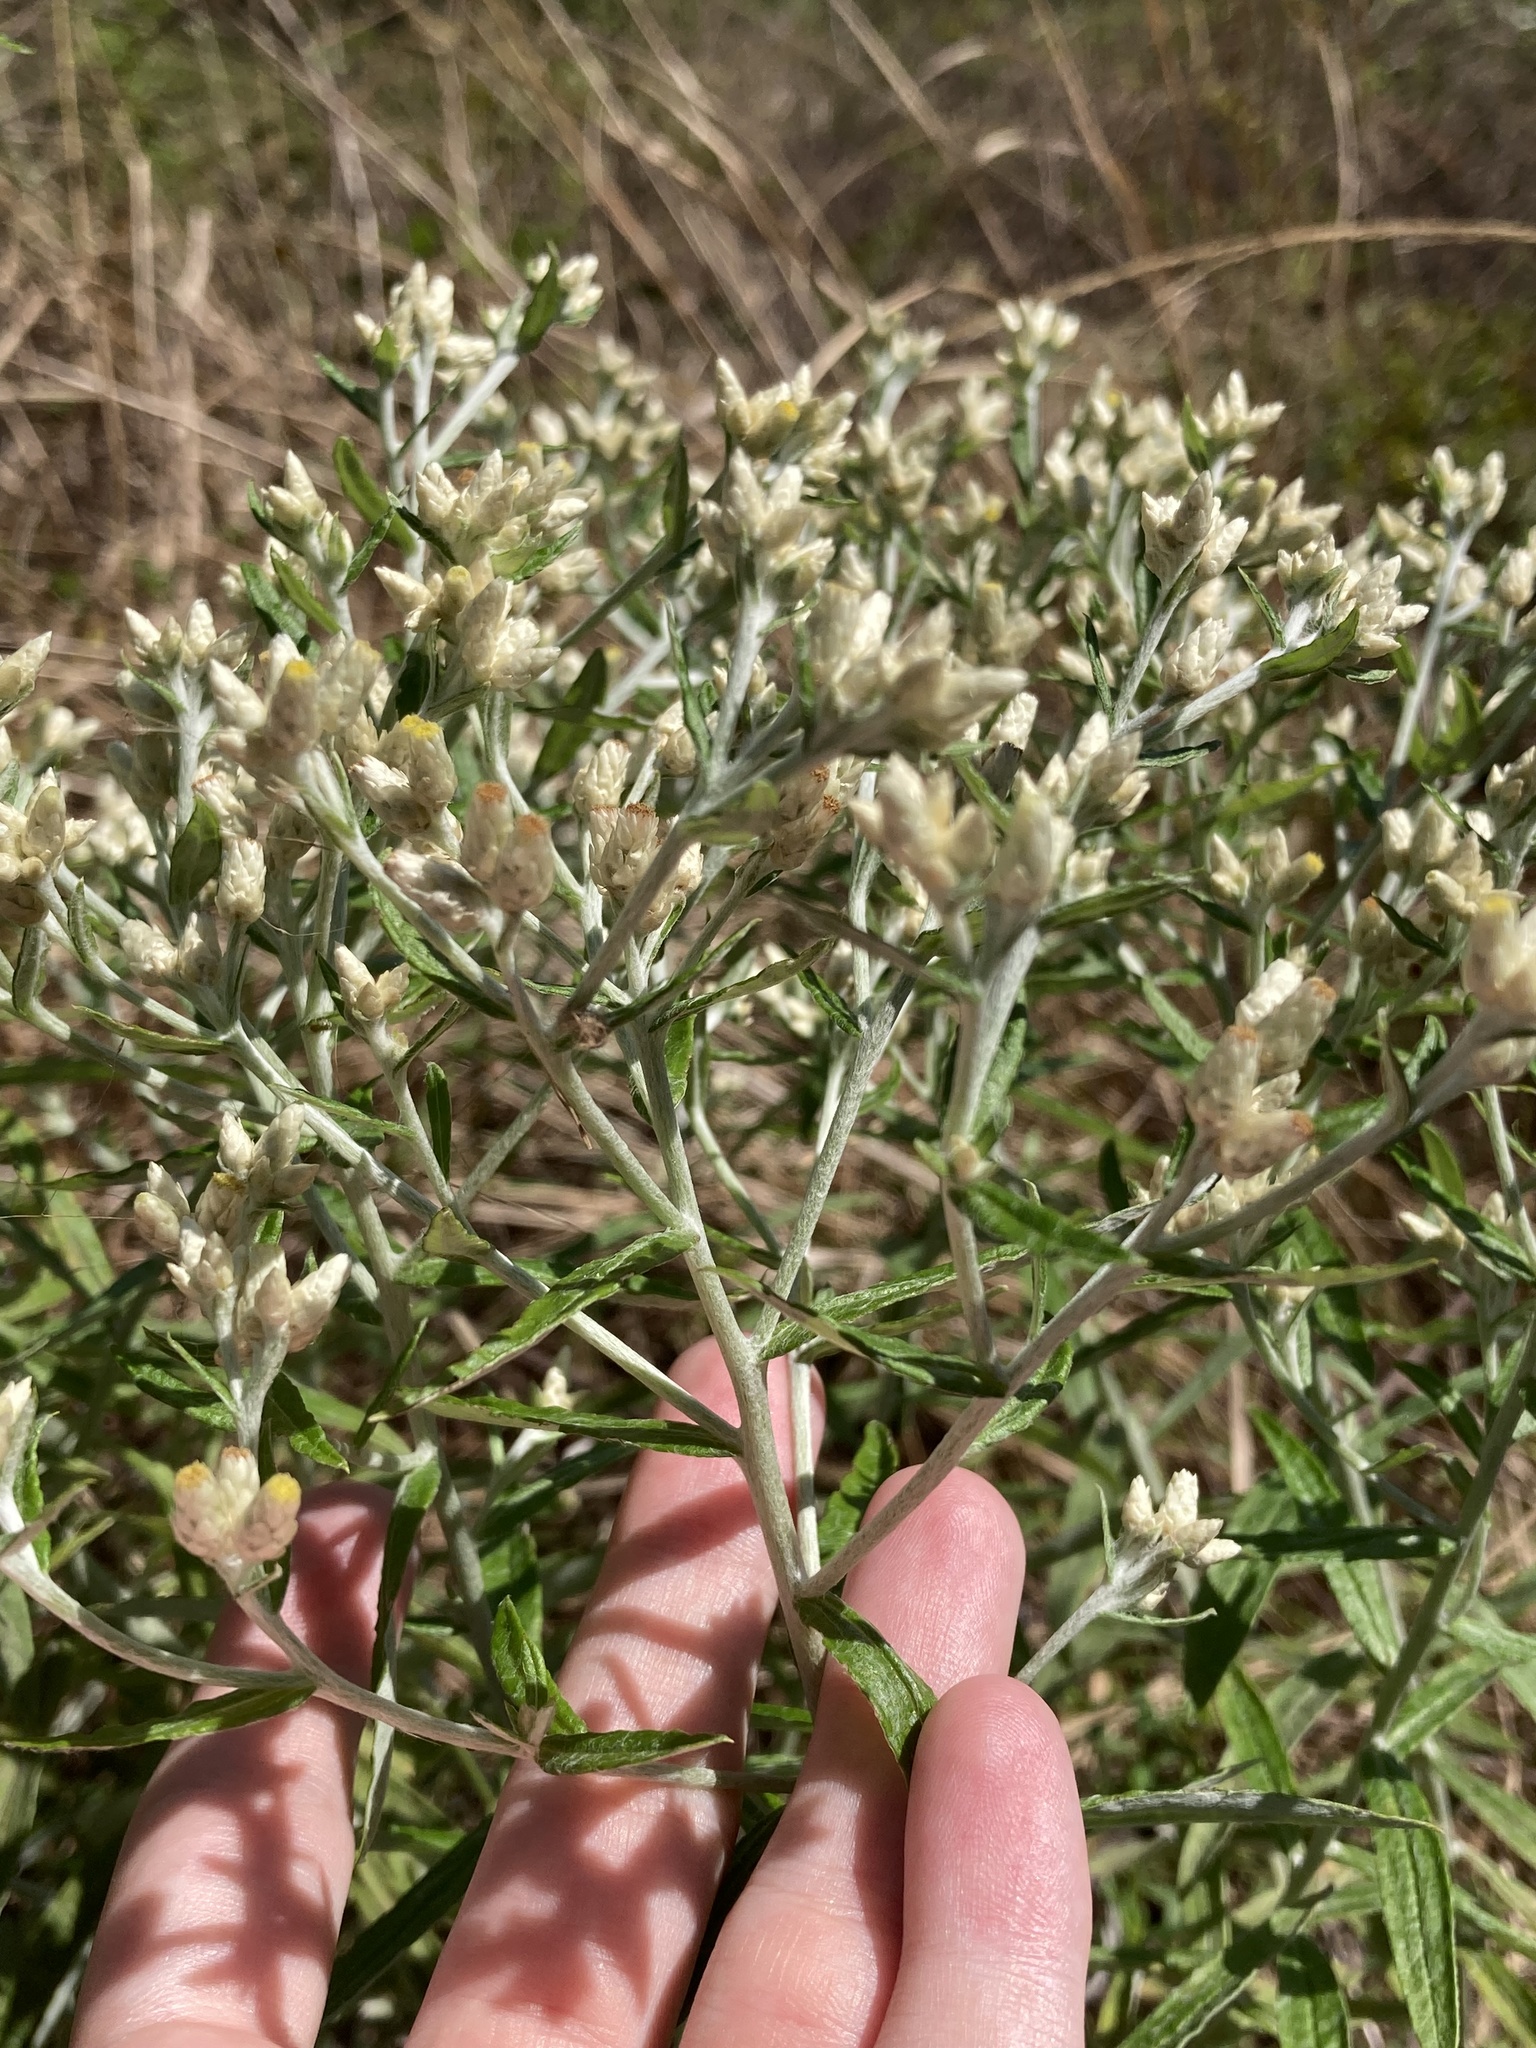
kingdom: Plantae
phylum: Tracheophyta
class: Magnoliopsida
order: Asterales
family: Asteraceae
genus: Pseudognaphalium
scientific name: Pseudognaphalium obtusifolium
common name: Eastern rabbit-tobacco
